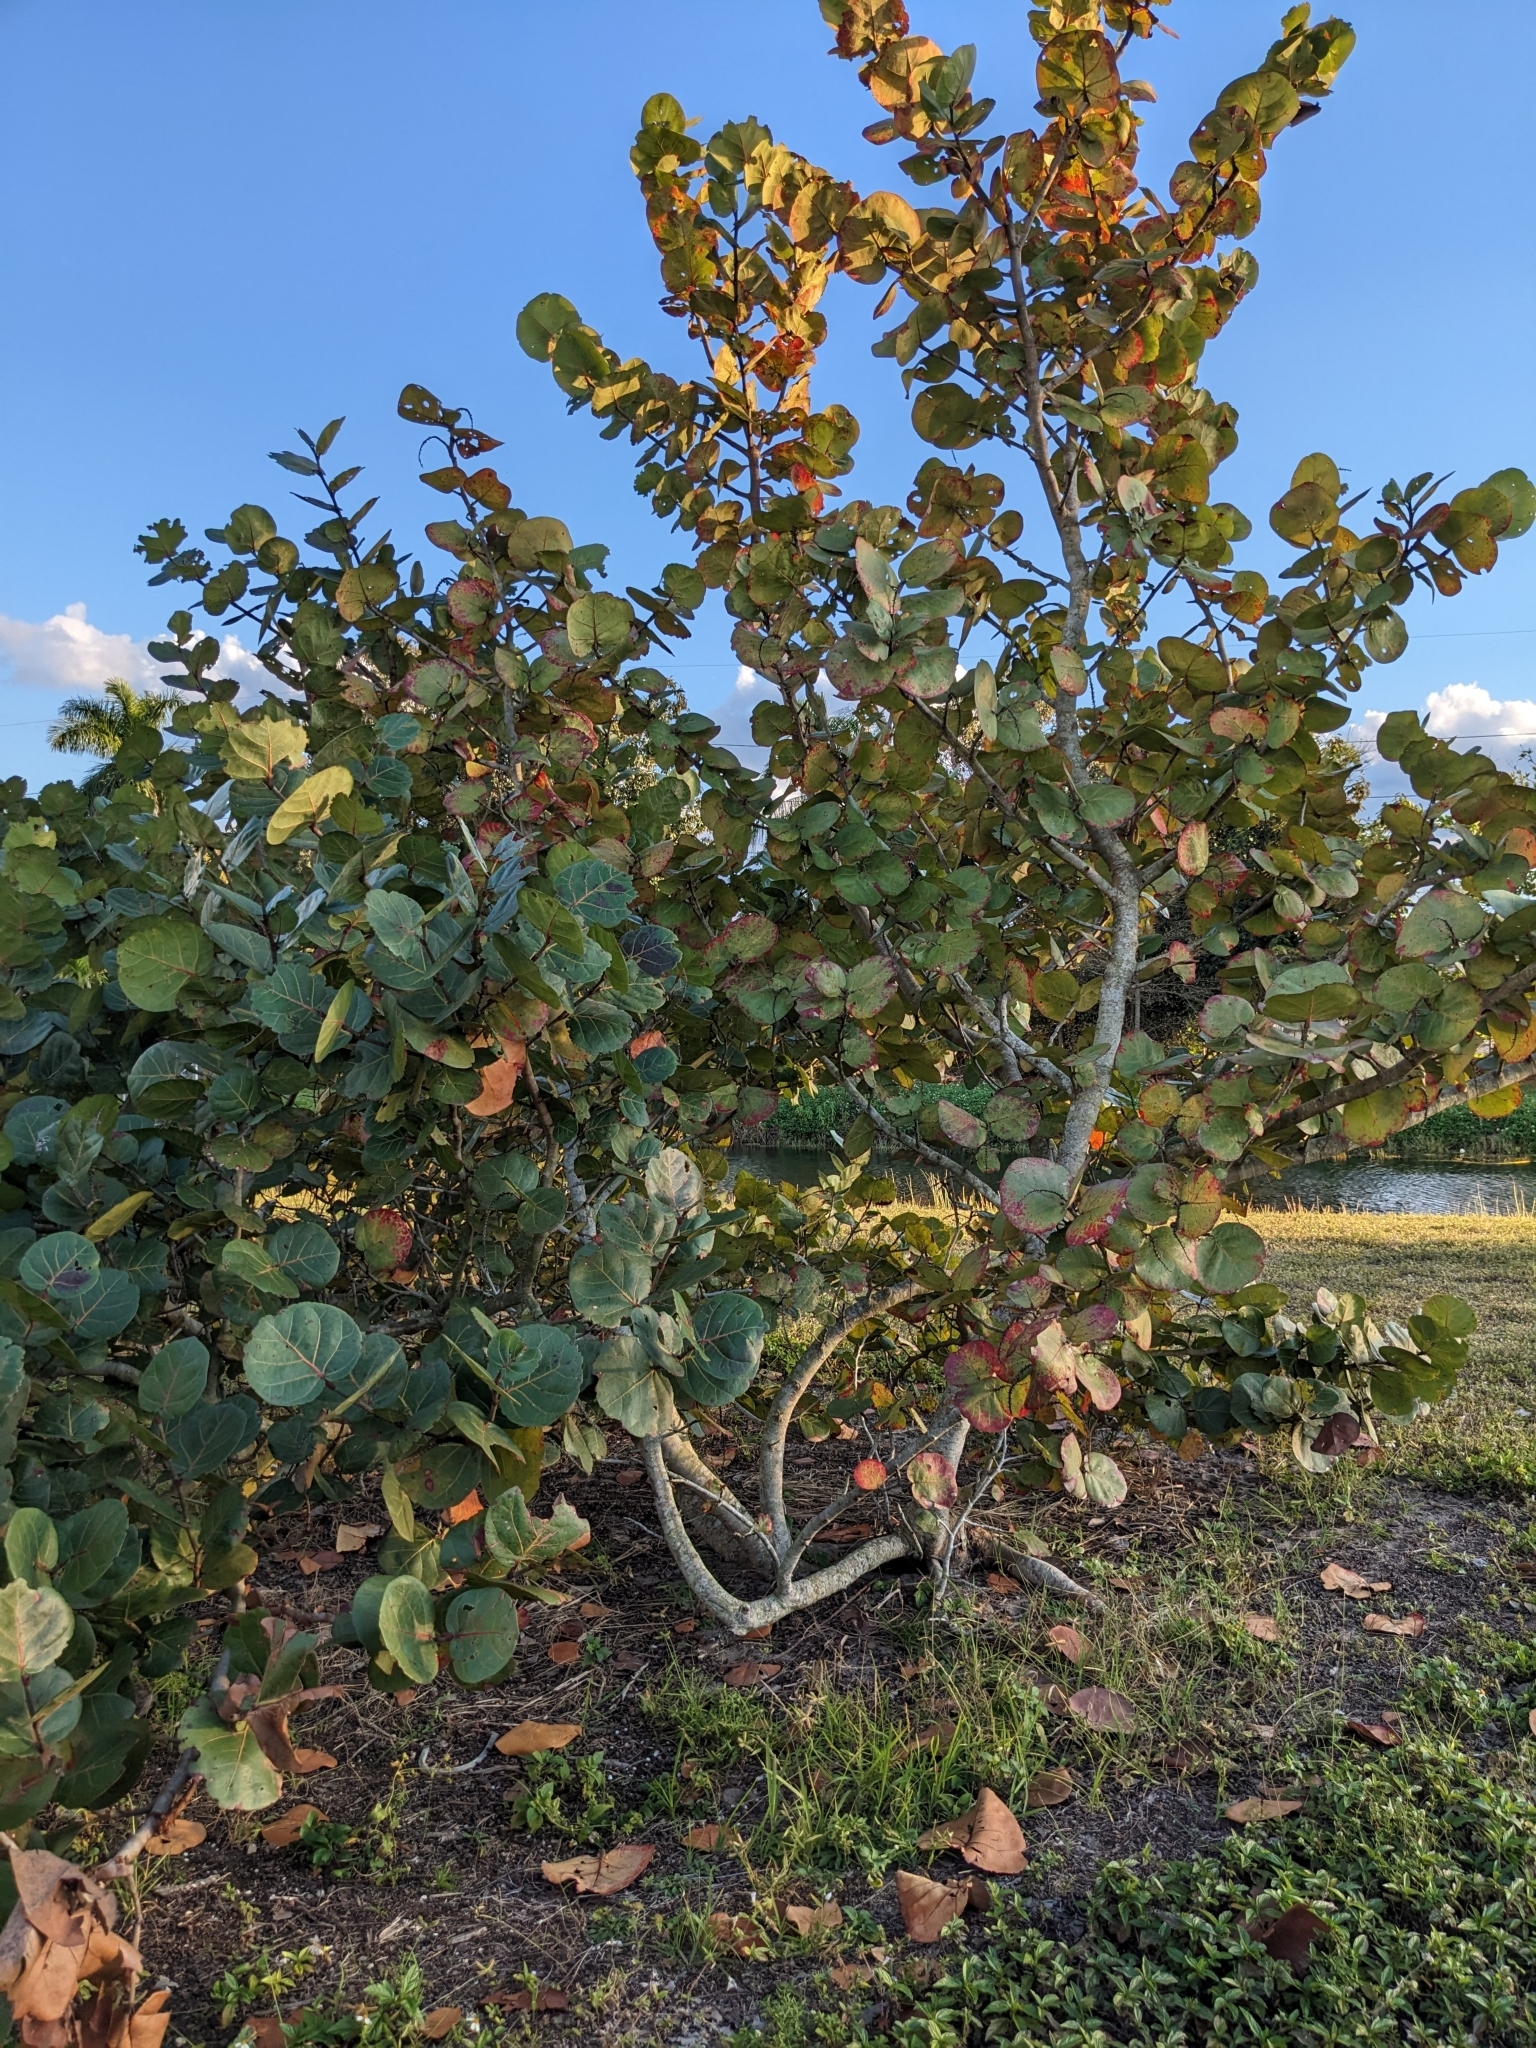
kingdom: Plantae
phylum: Tracheophyta
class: Magnoliopsida
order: Caryophyllales
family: Polygonaceae
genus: Coccoloba
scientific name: Coccoloba uvifera
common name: Seagrape
